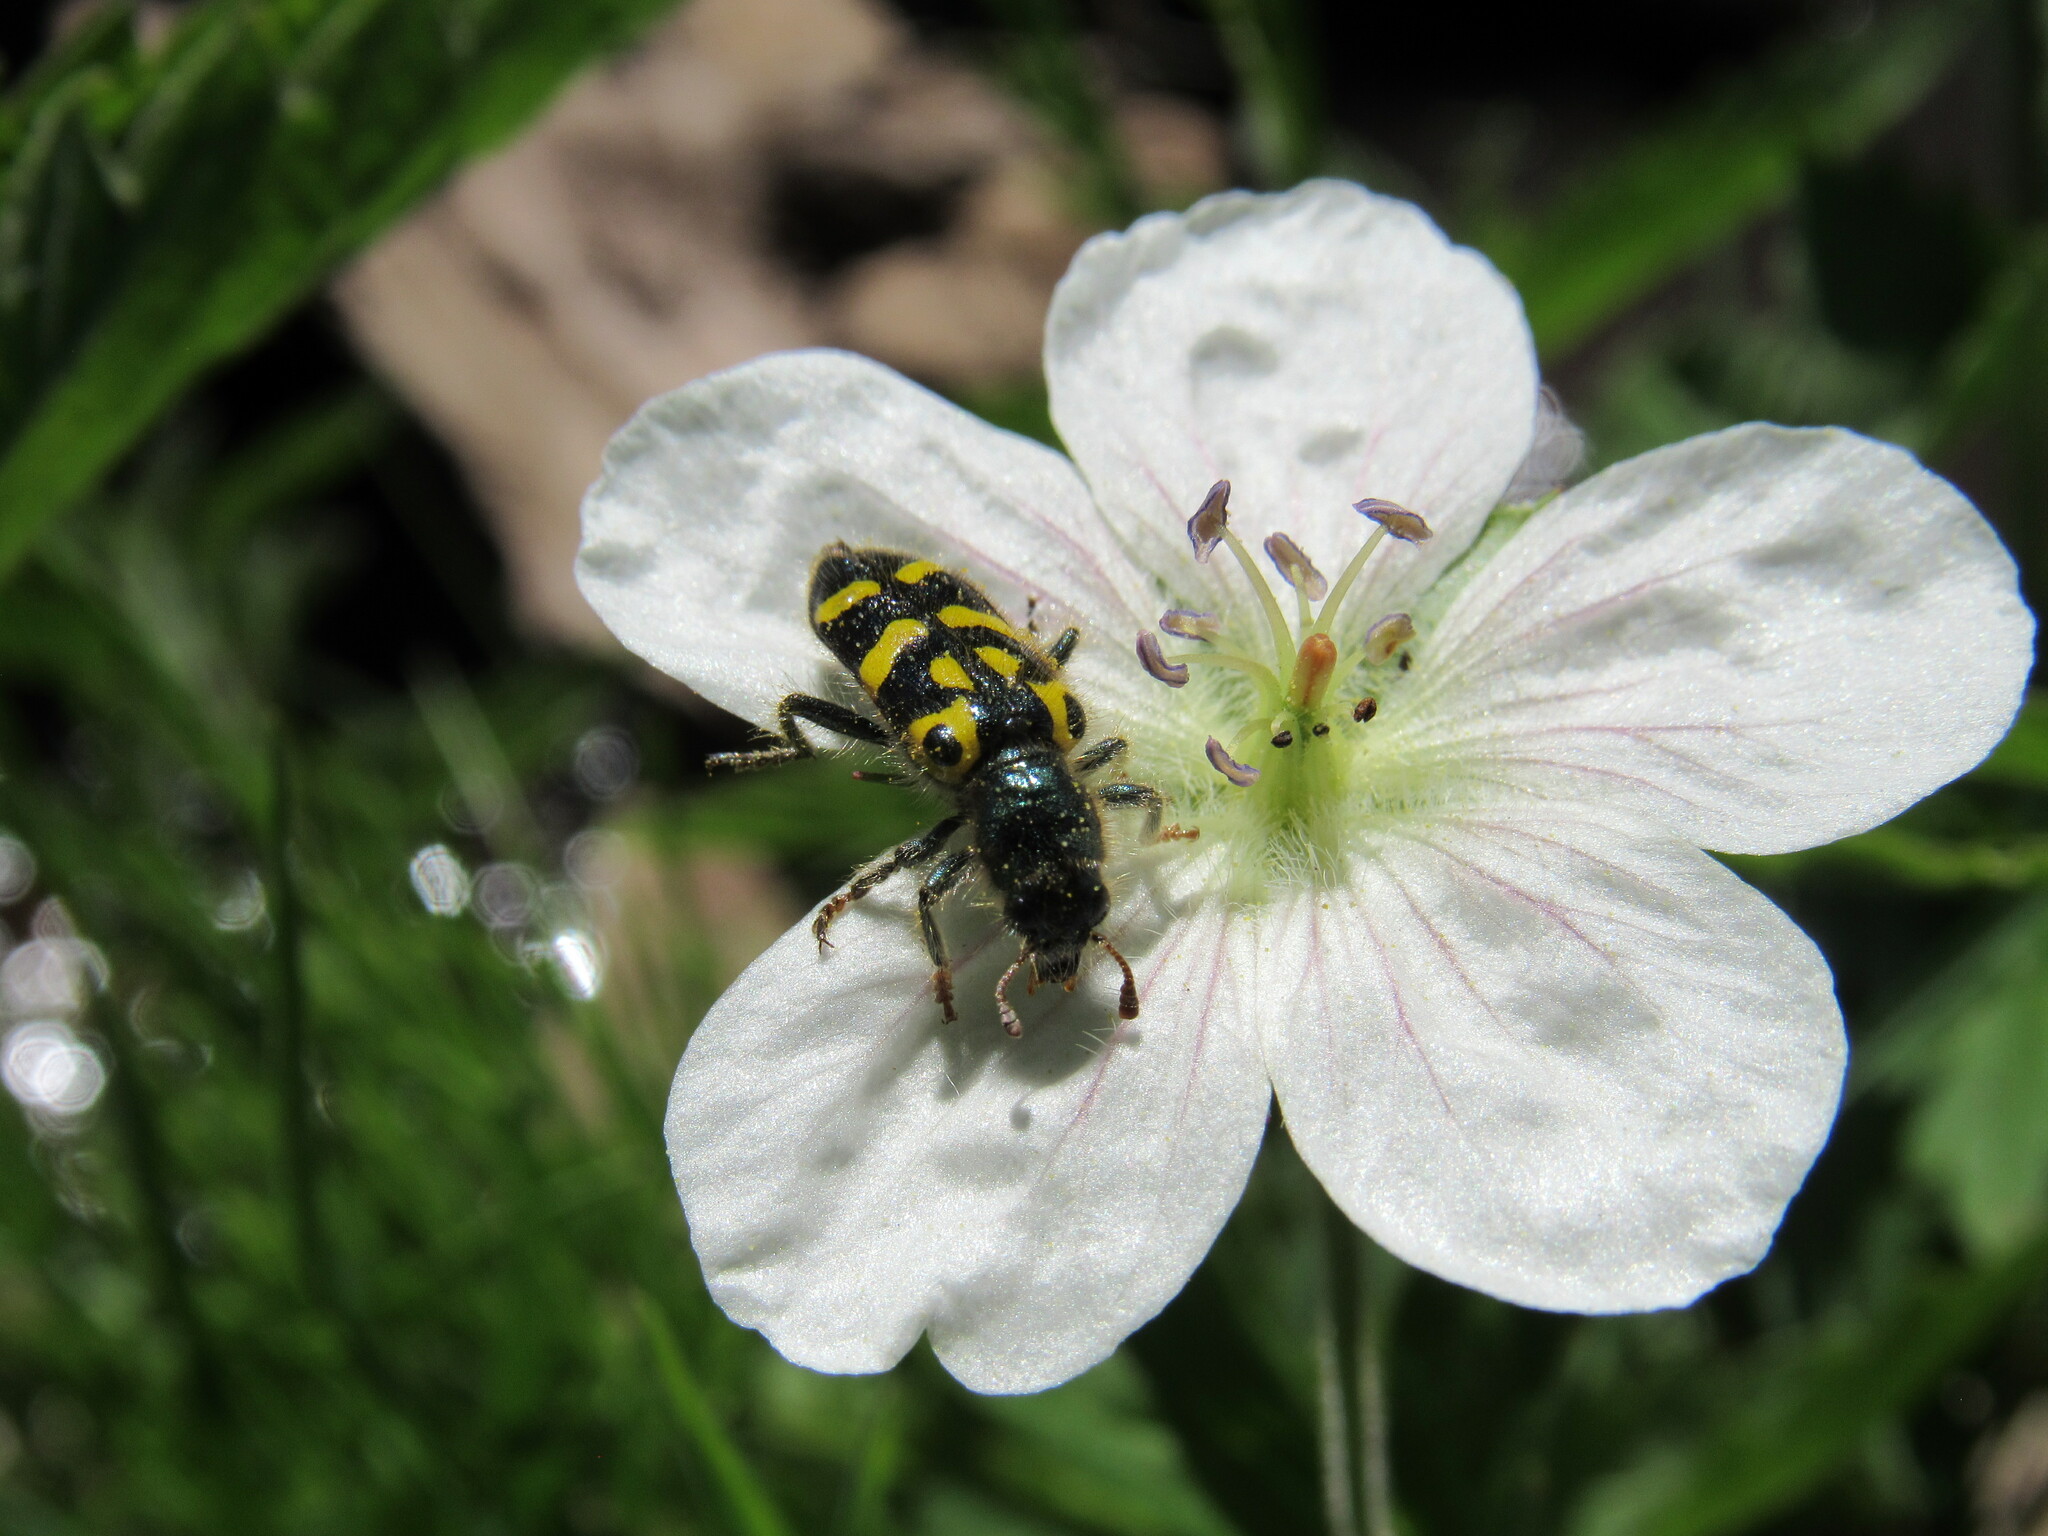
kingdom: Animalia
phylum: Arthropoda
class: Insecta
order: Coleoptera
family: Cleridae
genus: Trichodes
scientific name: Trichodes ornatus
